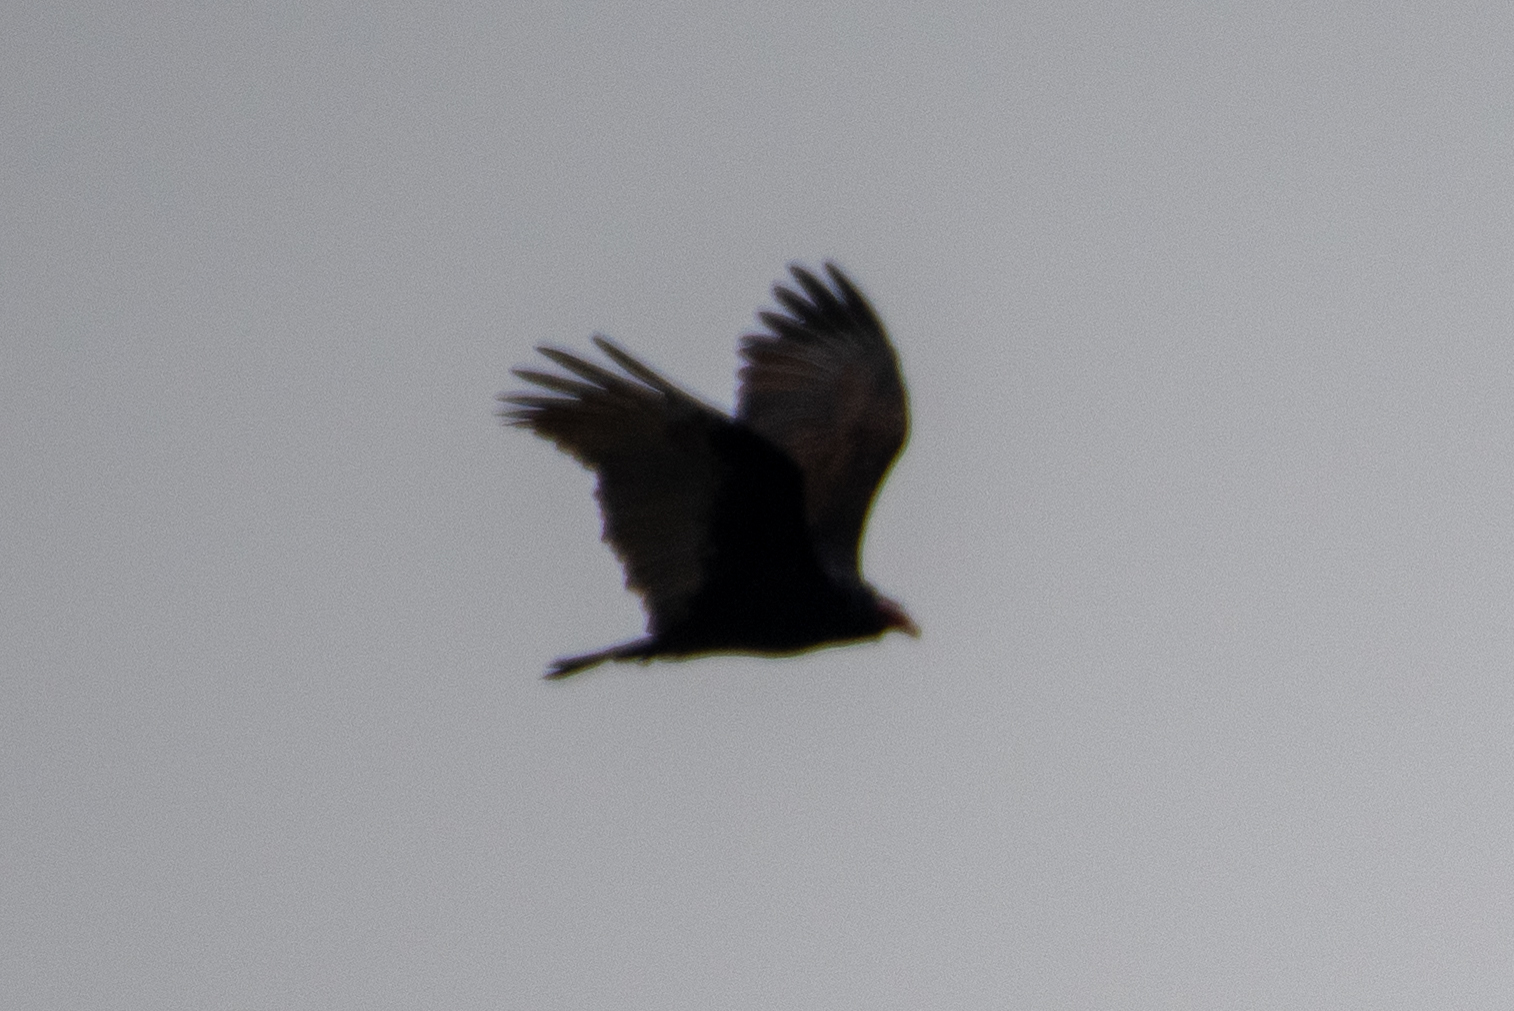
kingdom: Animalia
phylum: Chordata
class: Aves
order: Accipitriformes
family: Cathartidae
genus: Cathartes
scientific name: Cathartes aura
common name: Turkey vulture
